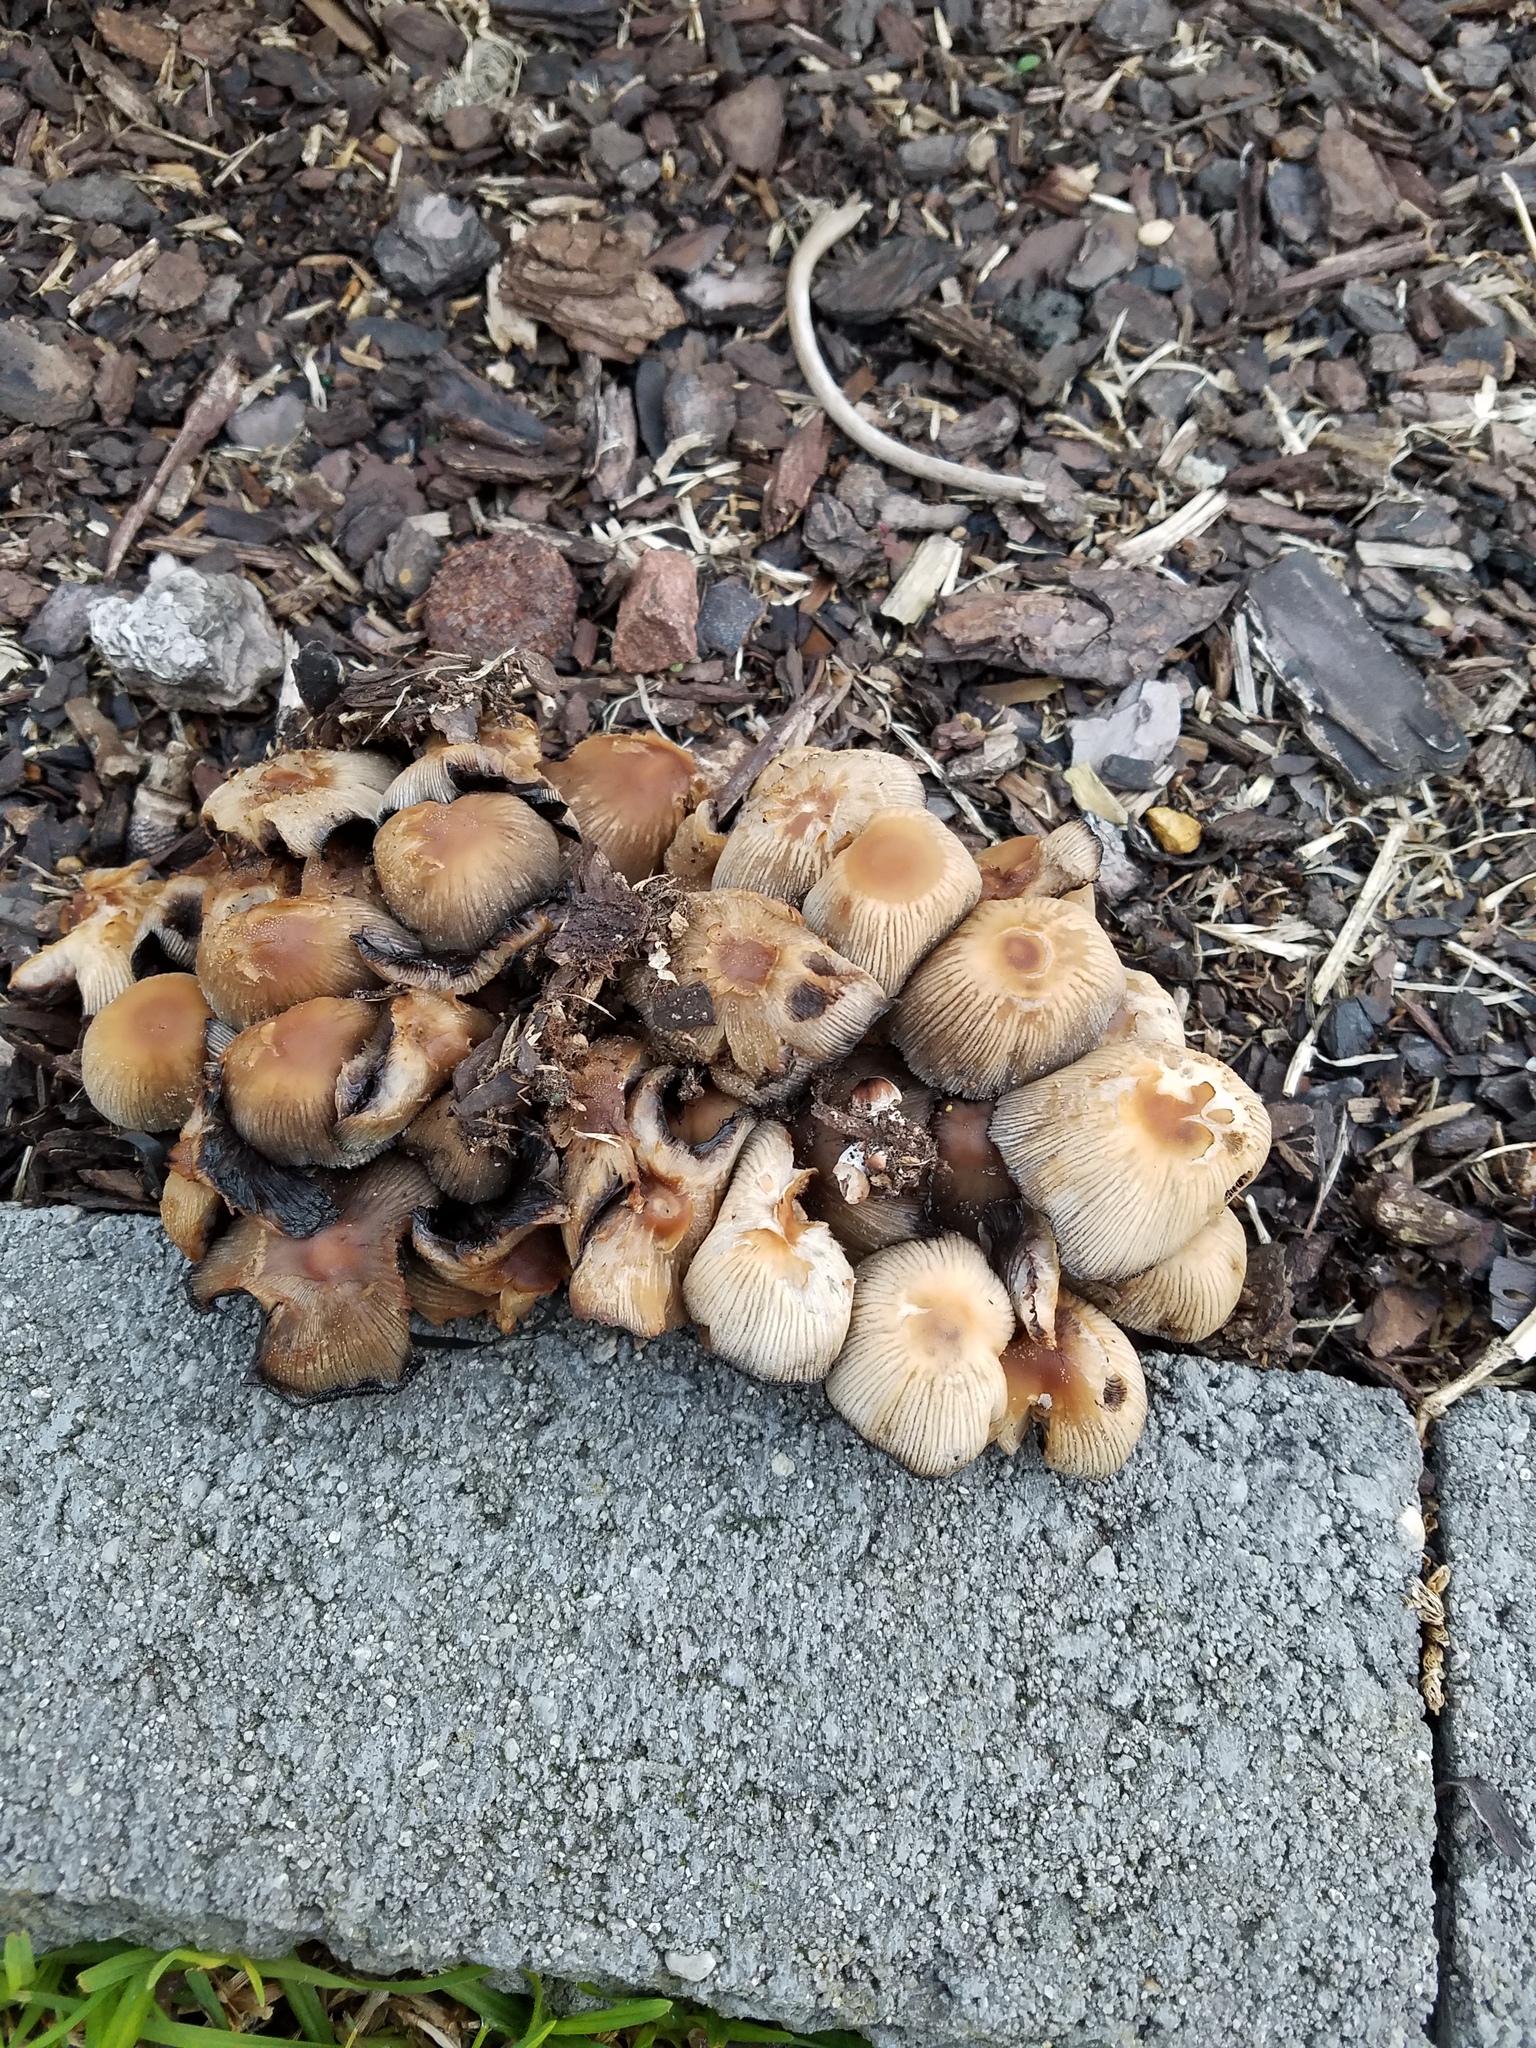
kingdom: Fungi
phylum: Basidiomycota
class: Agaricomycetes
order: Agaricales
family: Psathyrellaceae
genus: Coprinopsis
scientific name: Coprinopsis atramentaria
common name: Common ink-cap
